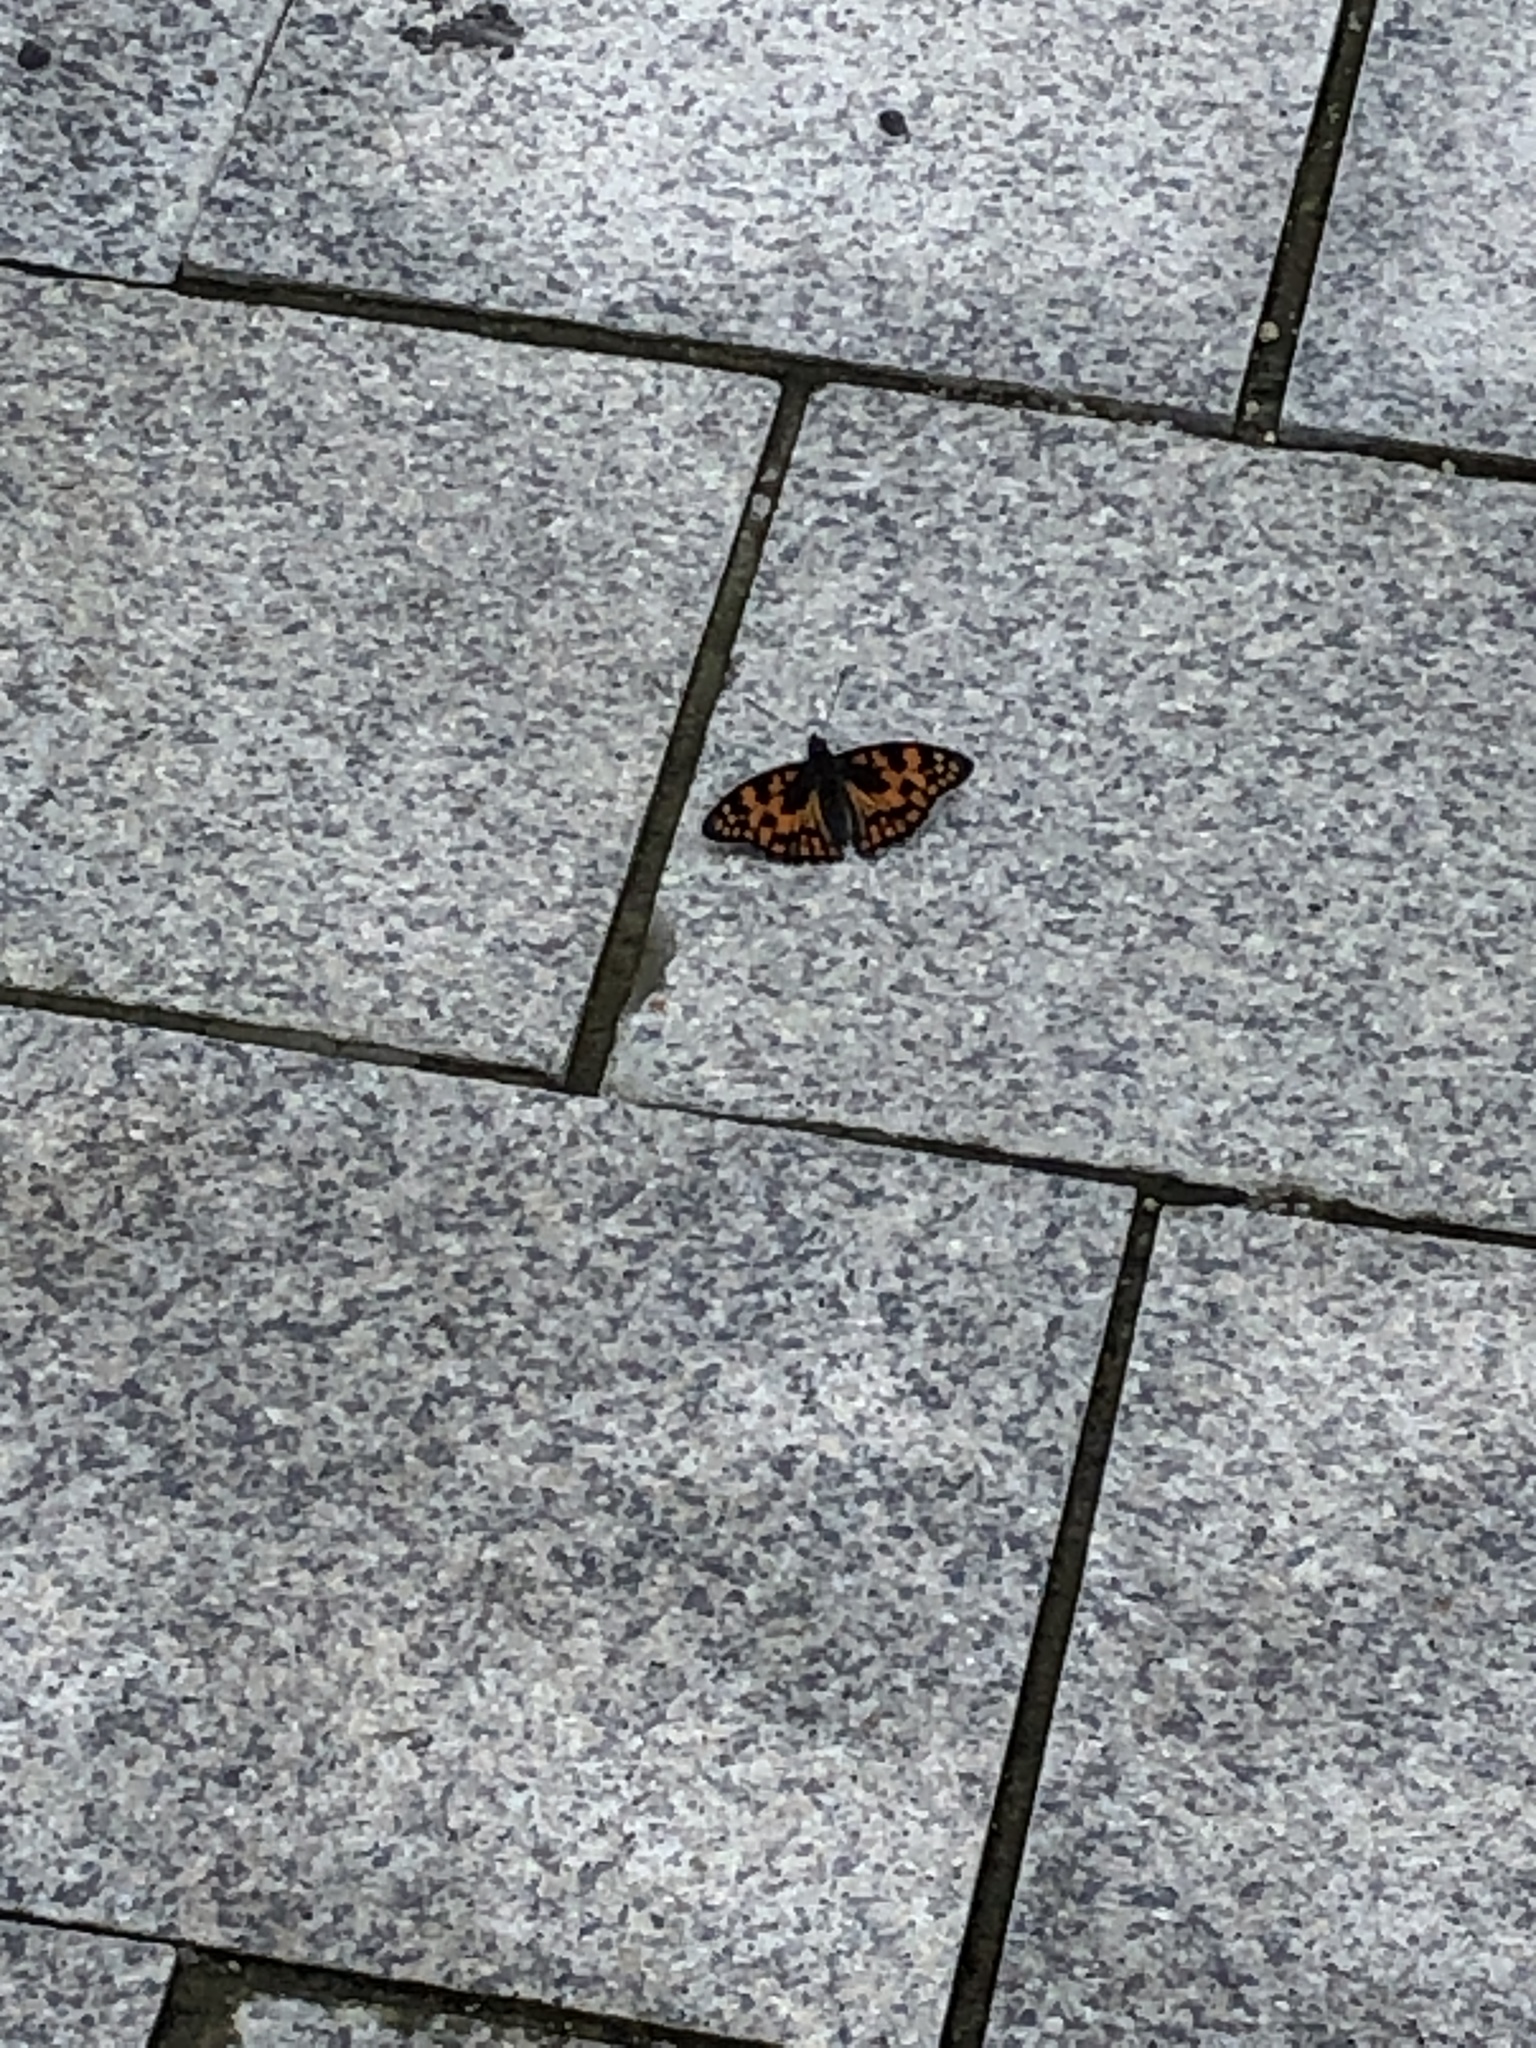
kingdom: Animalia
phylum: Arthropoda
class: Insecta
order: Lepidoptera
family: Nymphalidae
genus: Sephisa
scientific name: Sephisa dichroa
